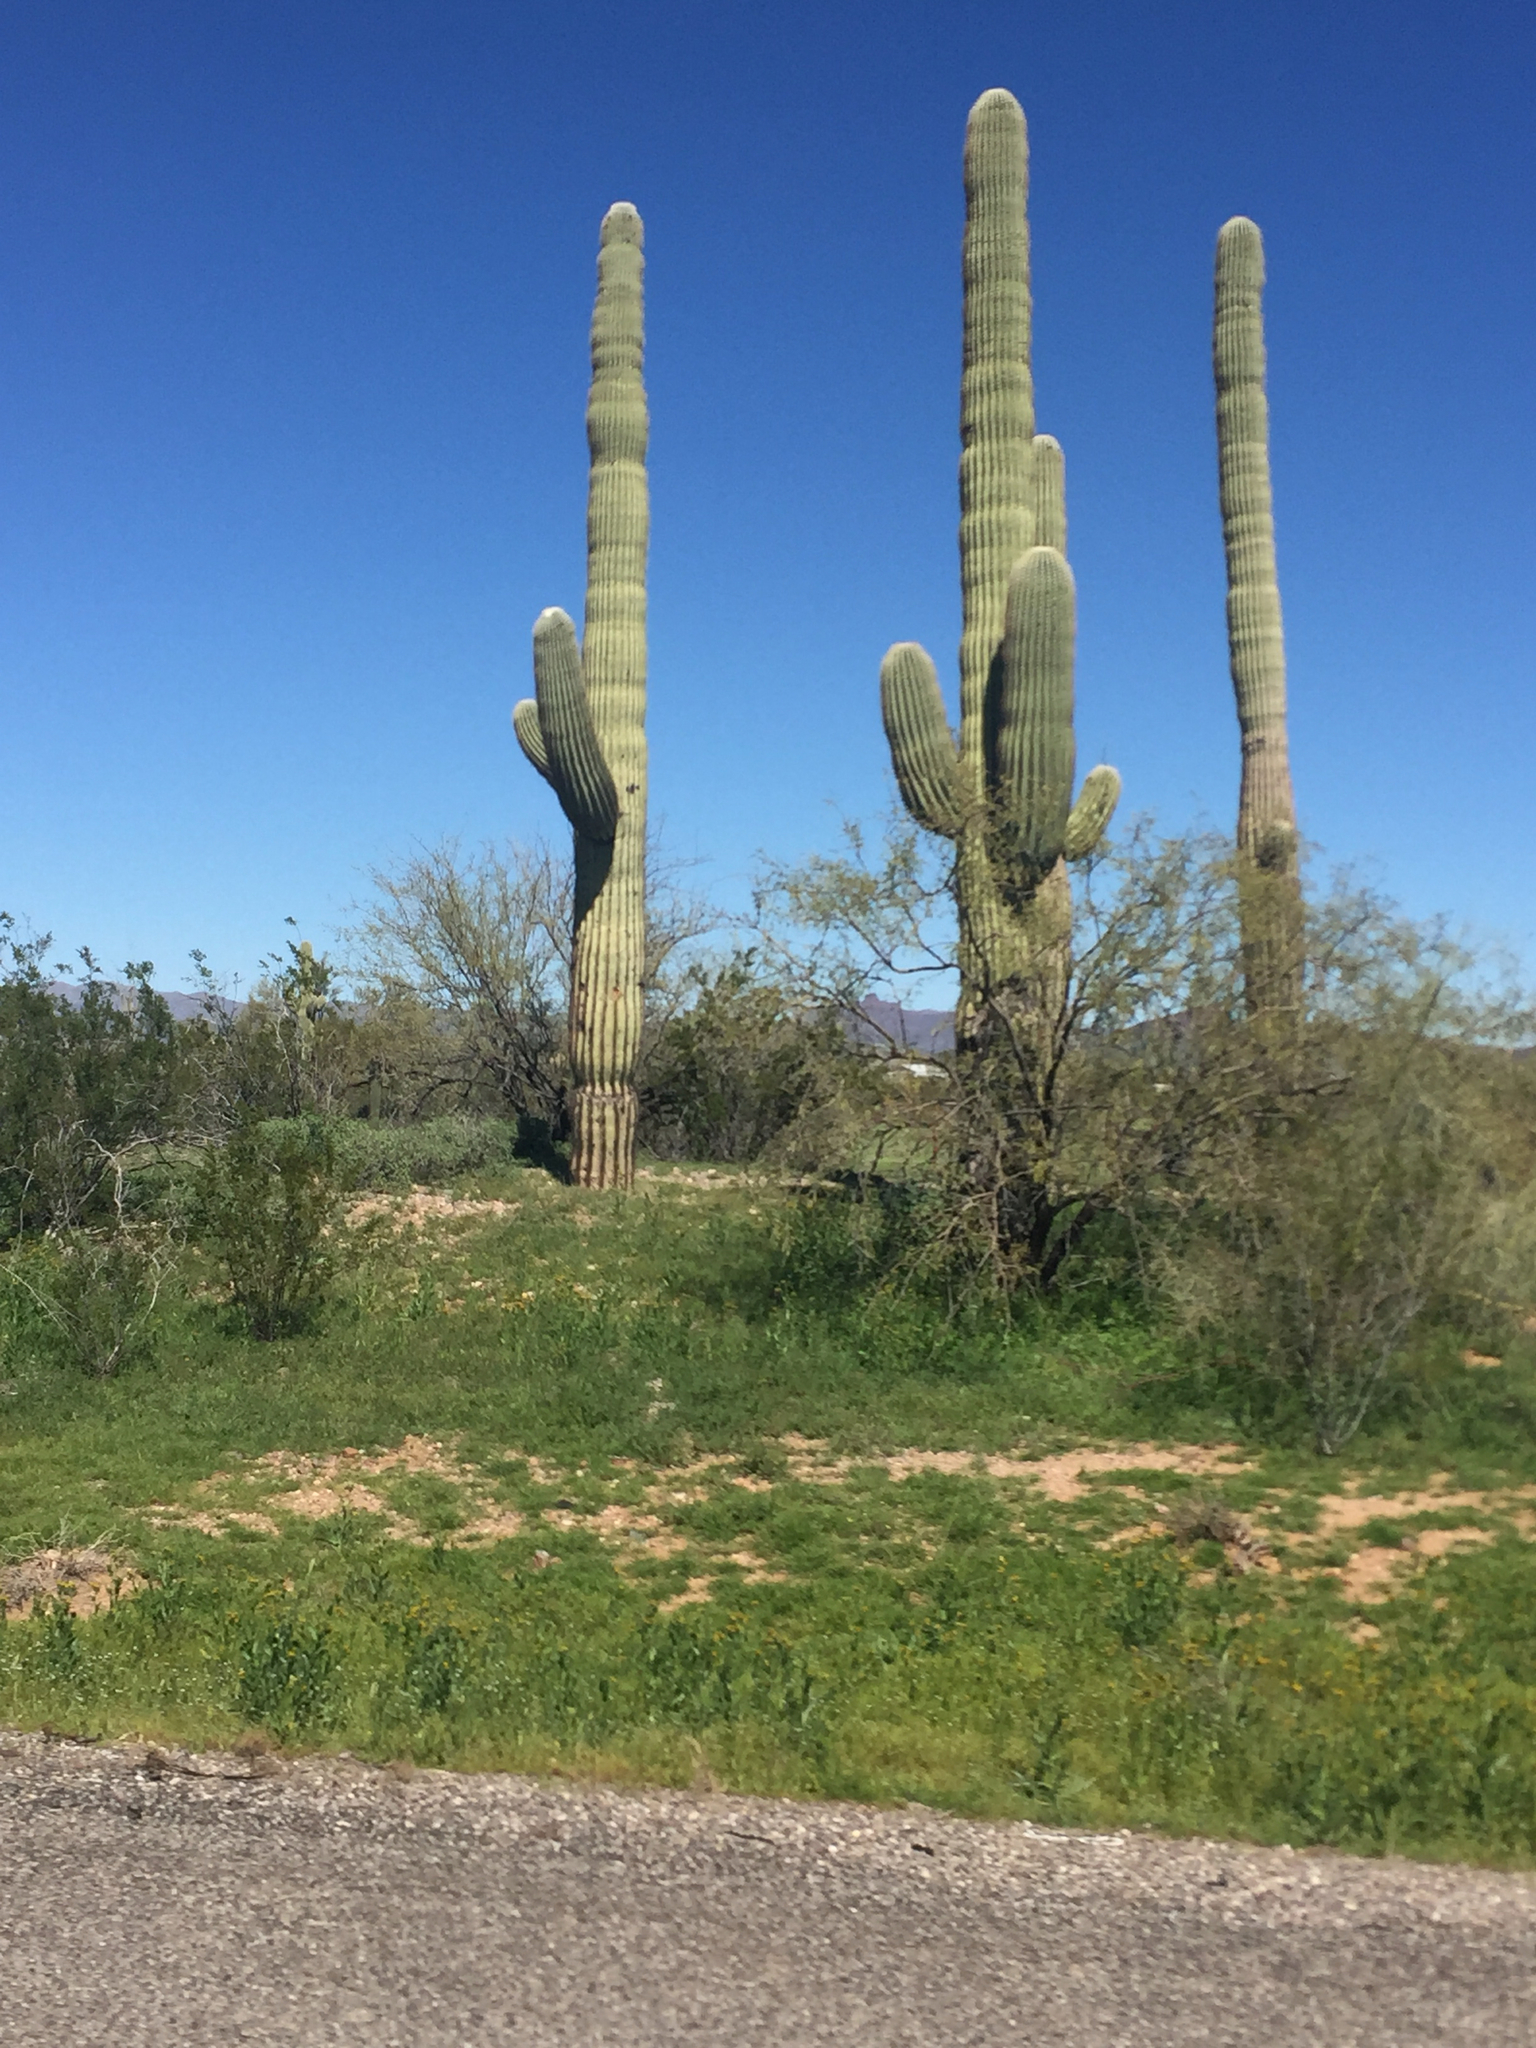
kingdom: Plantae
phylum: Tracheophyta
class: Magnoliopsida
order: Caryophyllales
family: Cactaceae
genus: Carnegiea
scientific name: Carnegiea gigantea
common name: Saguaro
